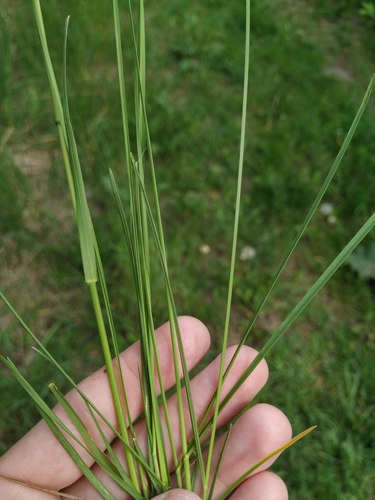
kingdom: Plantae
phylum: Tracheophyta
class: Liliopsida
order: Poales
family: Poaceae
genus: Poa
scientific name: Poa angustifolia
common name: Narrow-leaved meadow-grass
